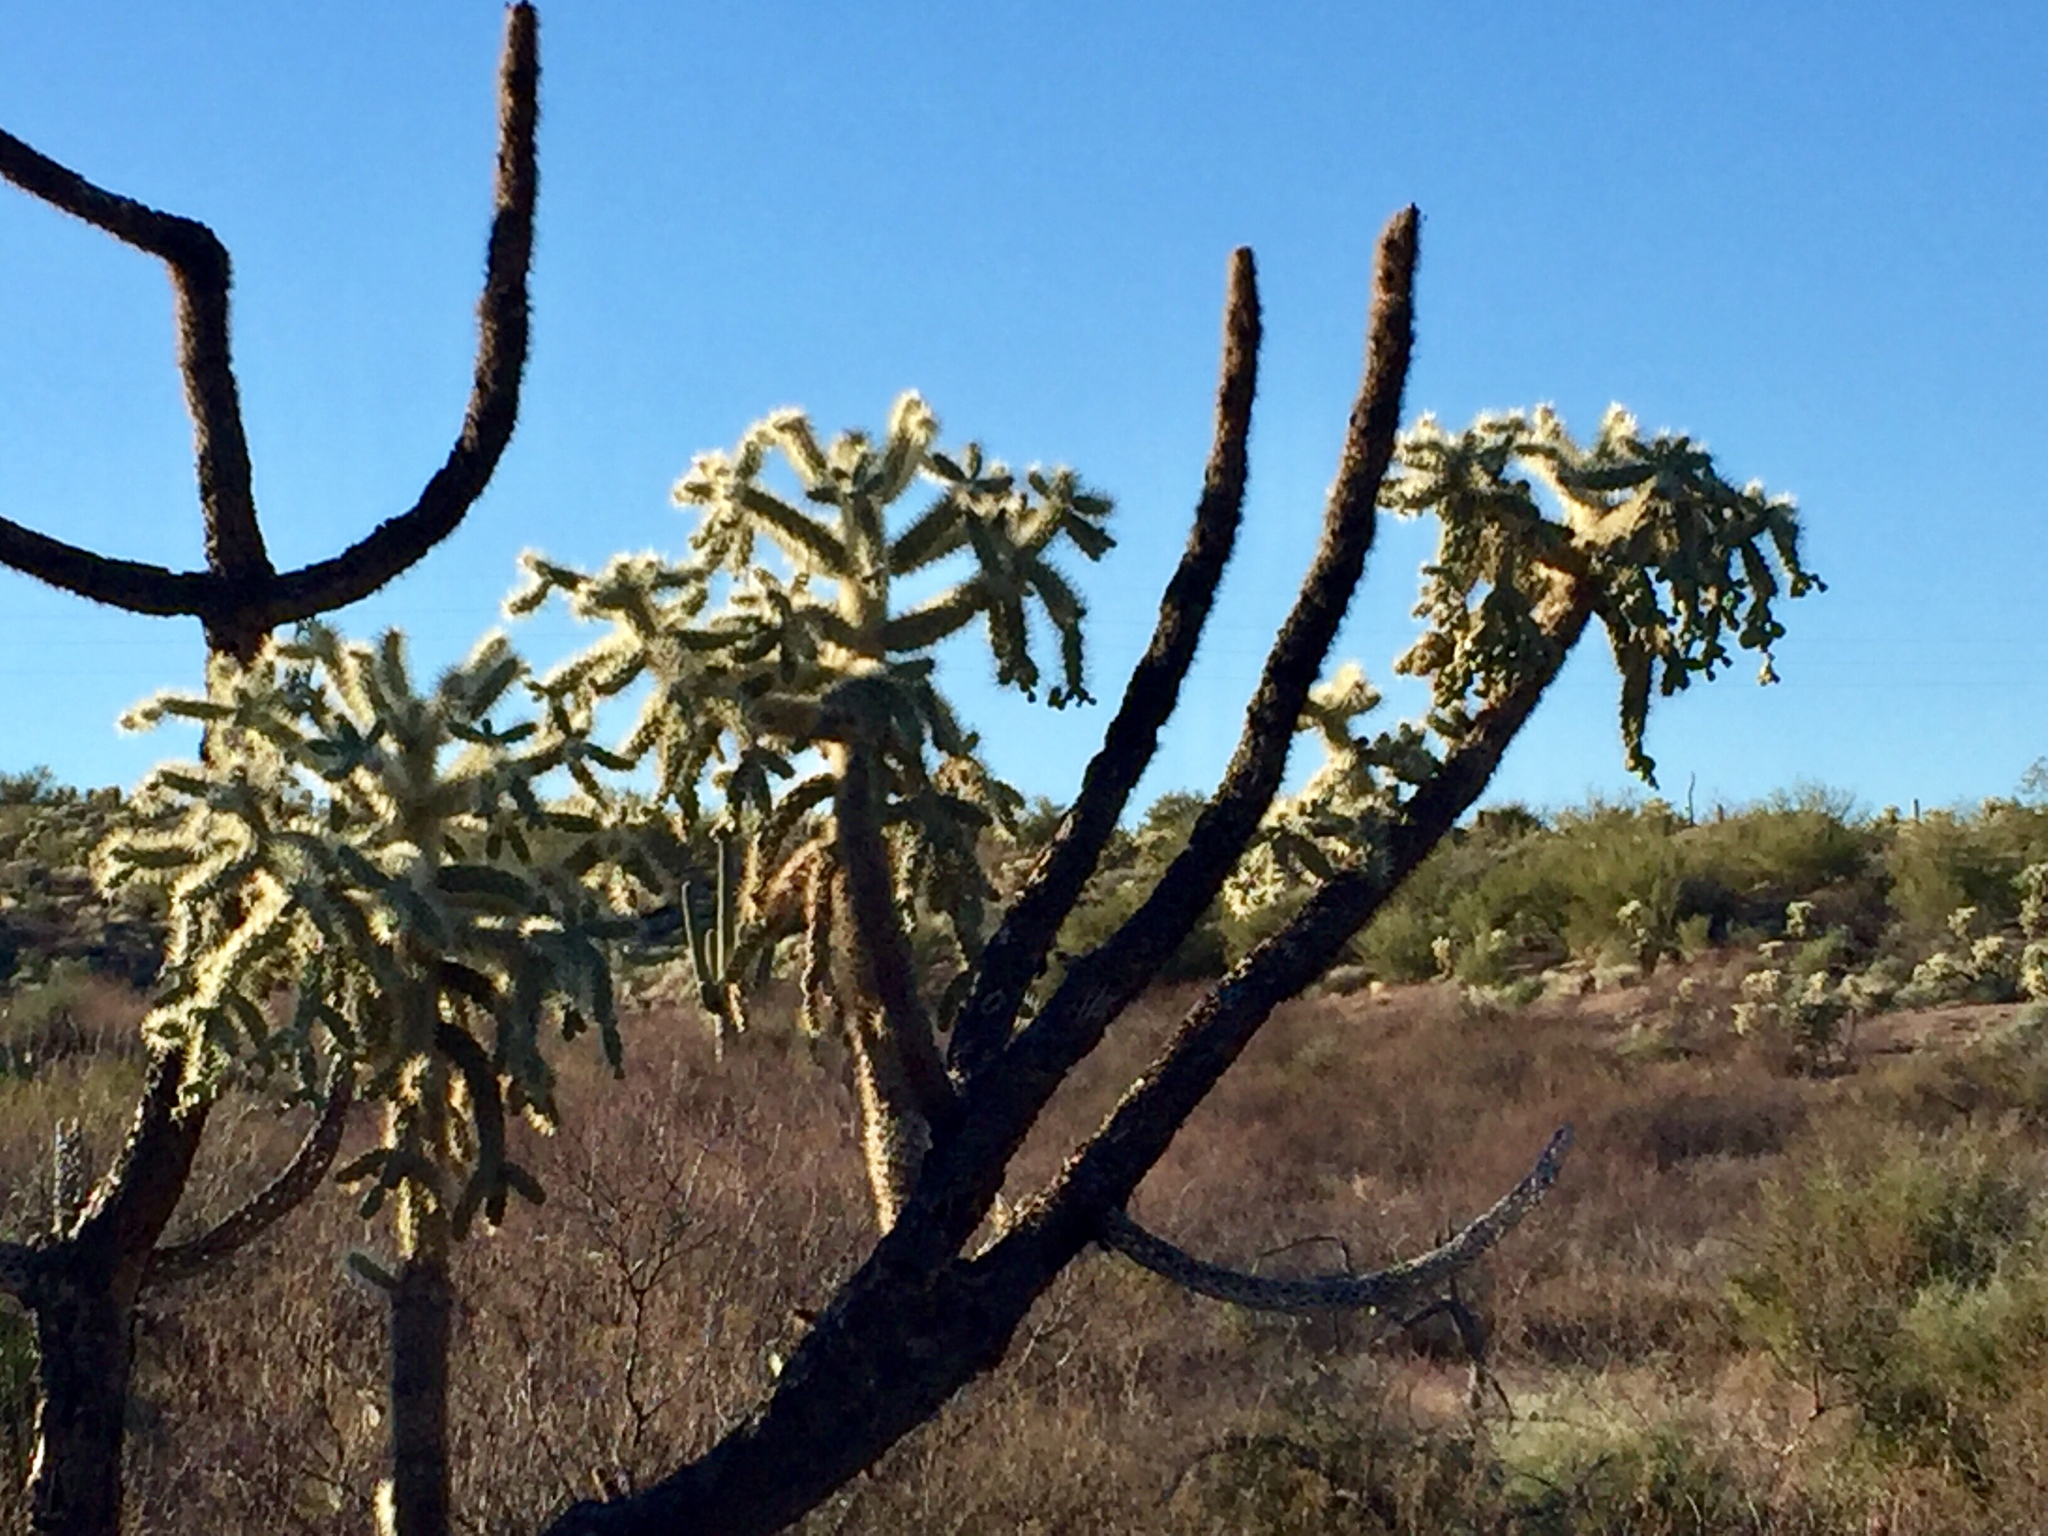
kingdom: Plantae
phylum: Tracheophyta
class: Magnoliopsida
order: Caryophyllales
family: Cactaceae
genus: Cylindropuntia
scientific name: Cylindropuntia fulgida
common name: Jumping cholla
